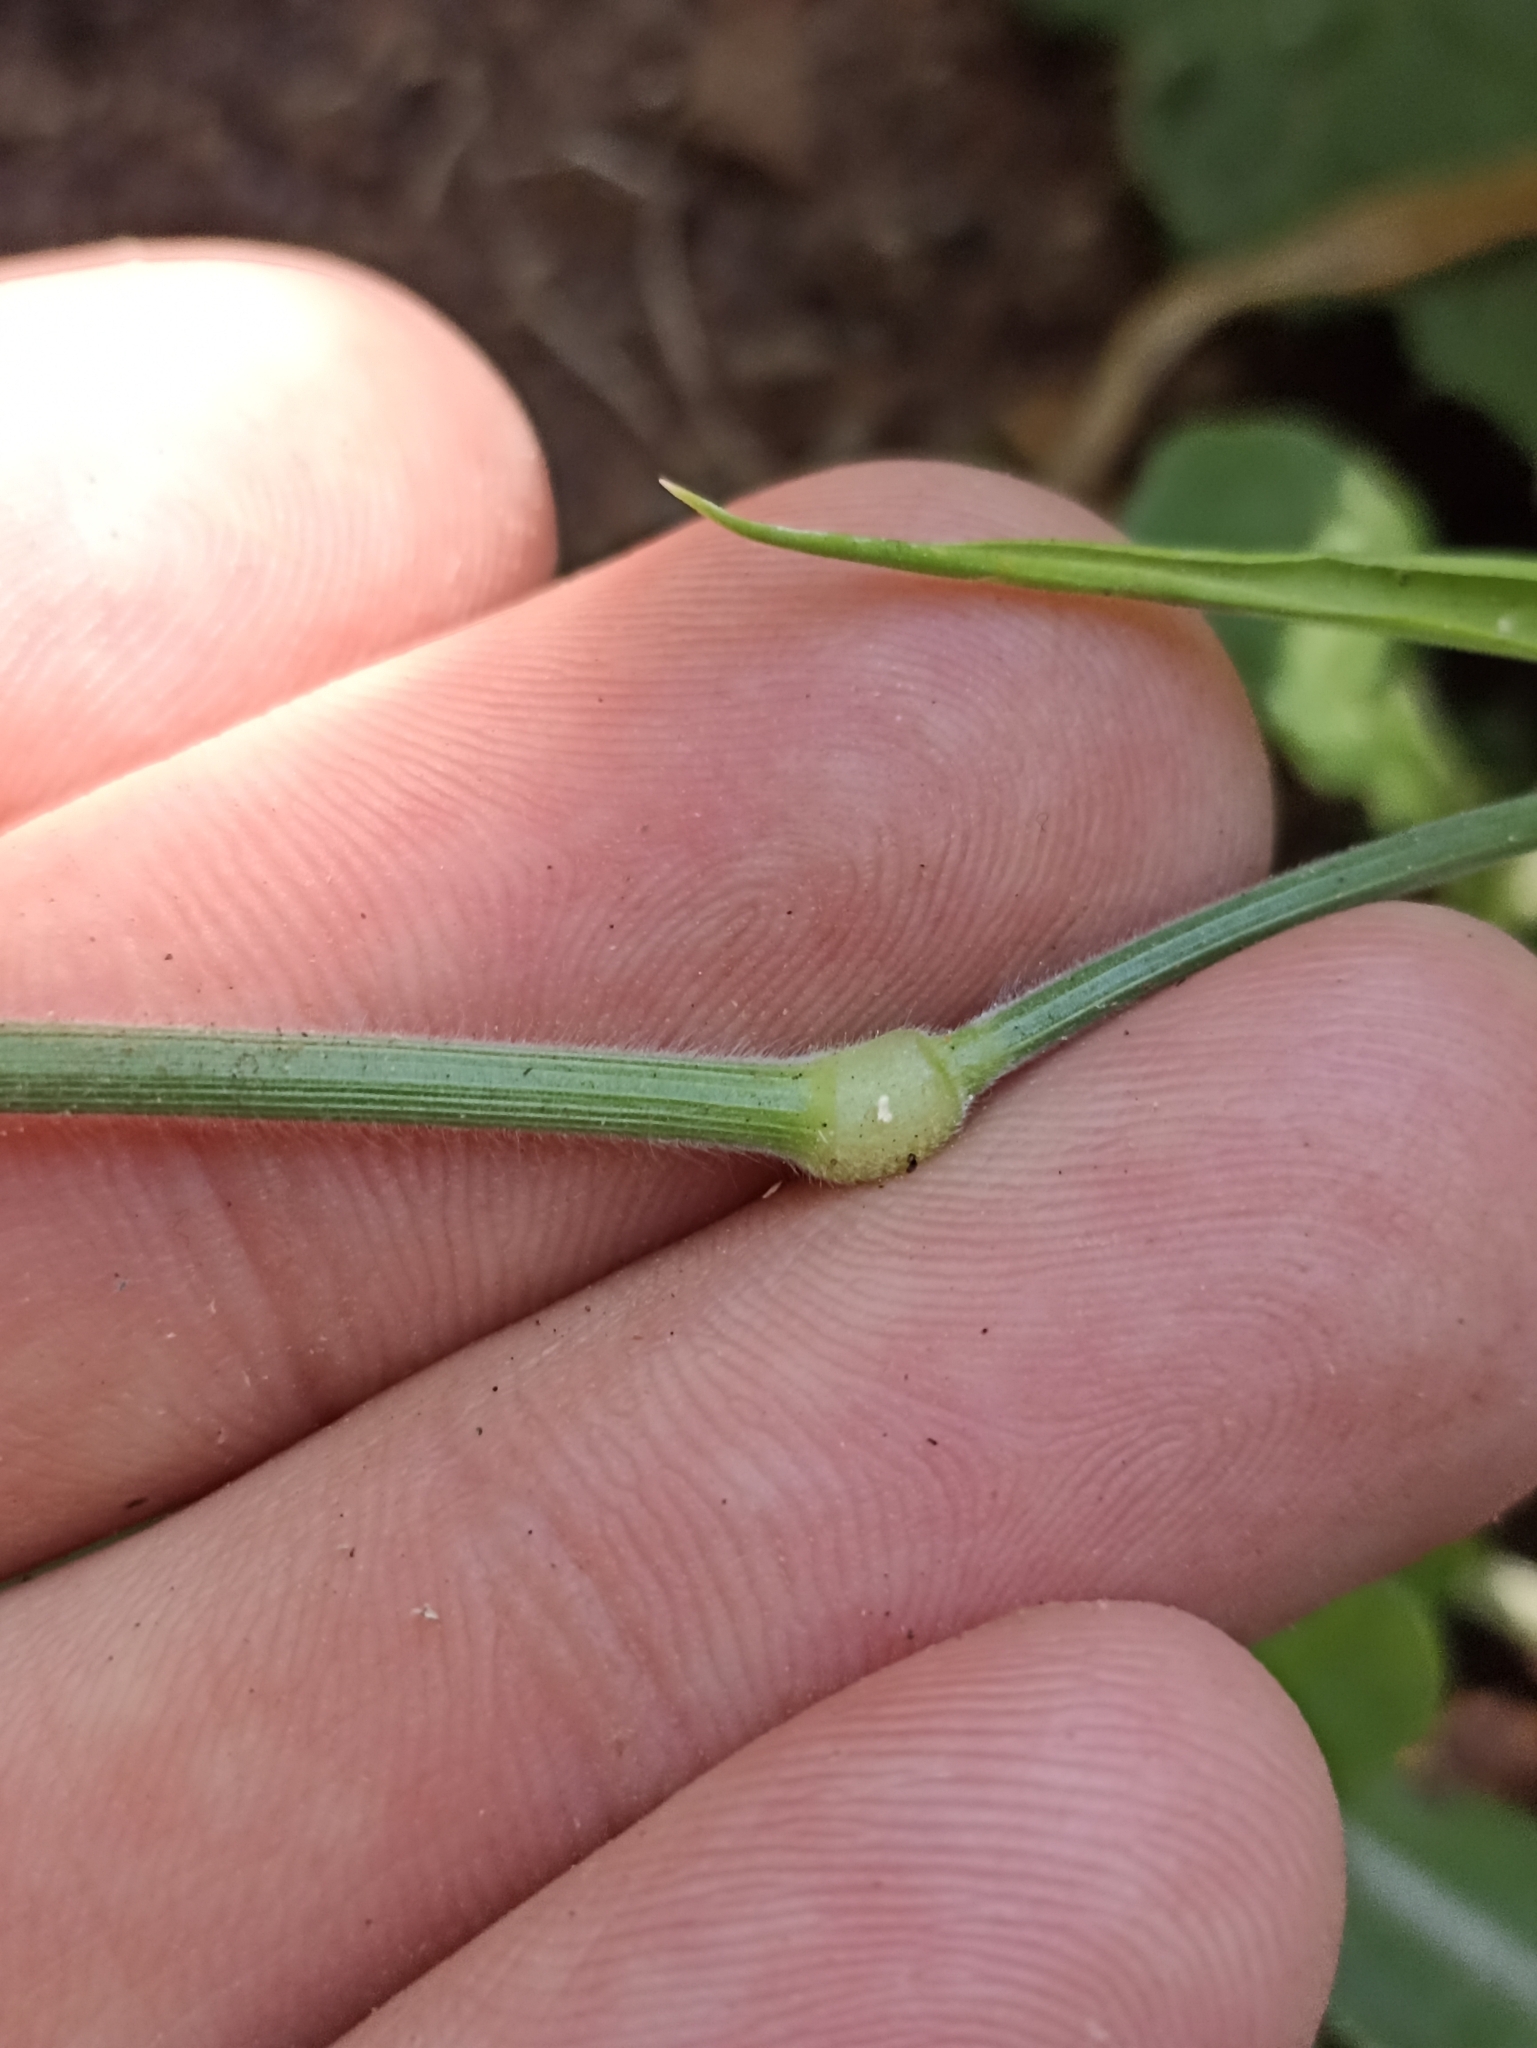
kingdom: Plantae
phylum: Tracheophyta
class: Liliopsida
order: Poales
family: Poaceae
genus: Lagurus
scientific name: Lagurus ovatus
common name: Hare's-tail
